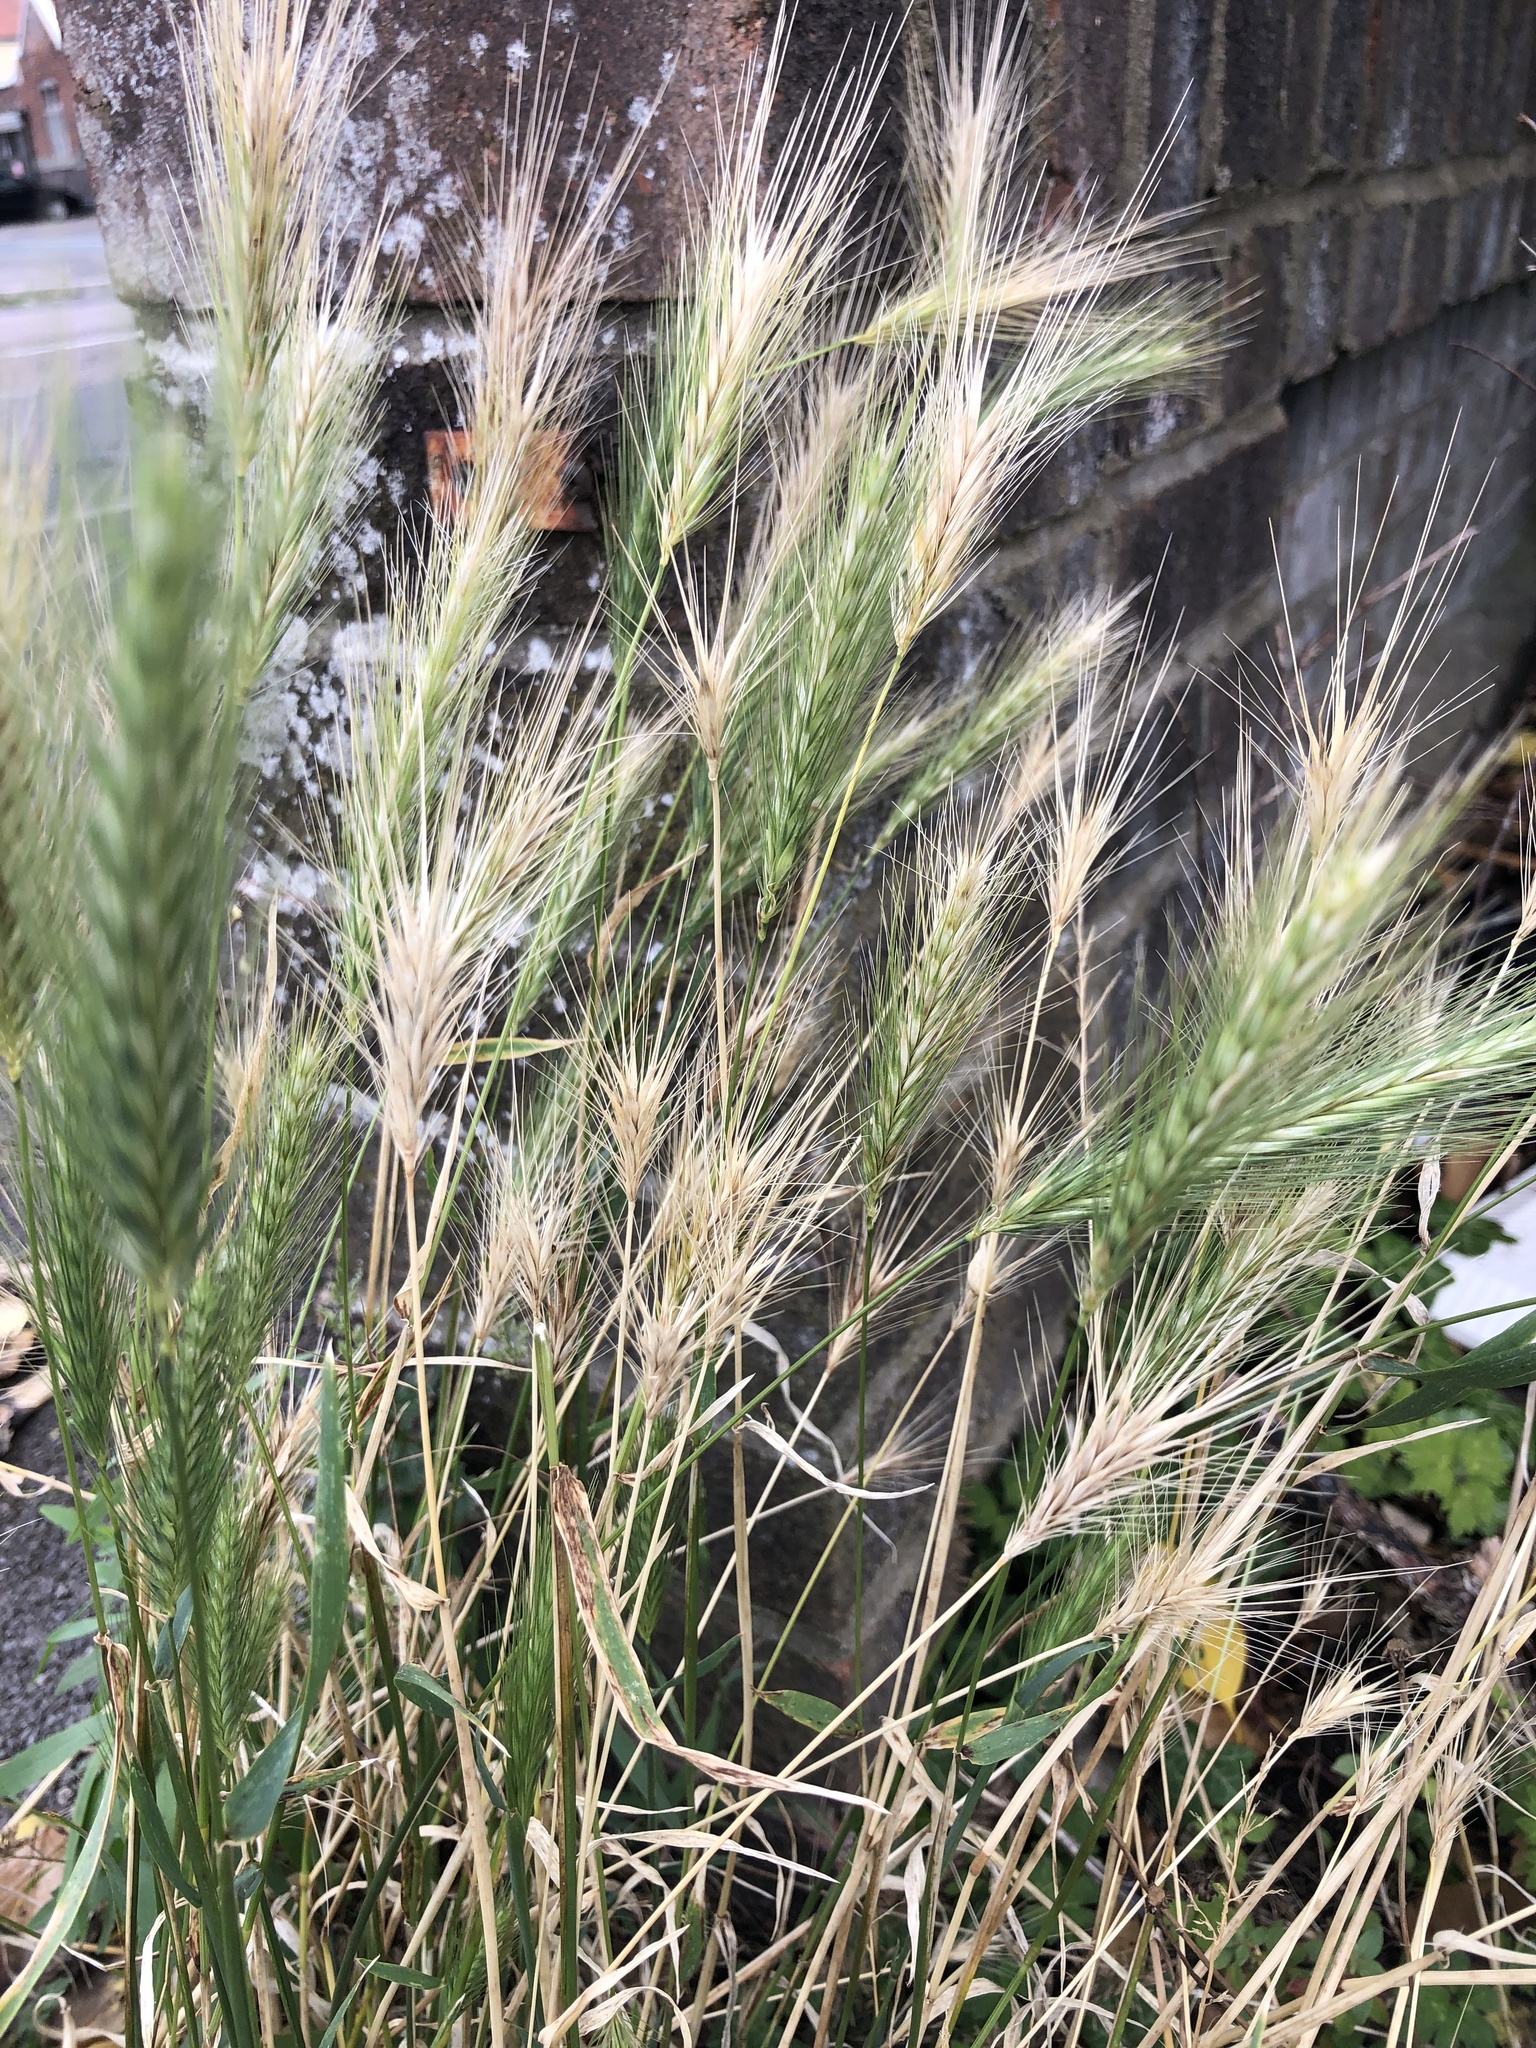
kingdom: Plantae
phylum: Tracheophyta
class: Liliopsida
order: Poales
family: Poaceae
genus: Hordeum
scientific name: Hordeum murinum
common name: Wall barley
